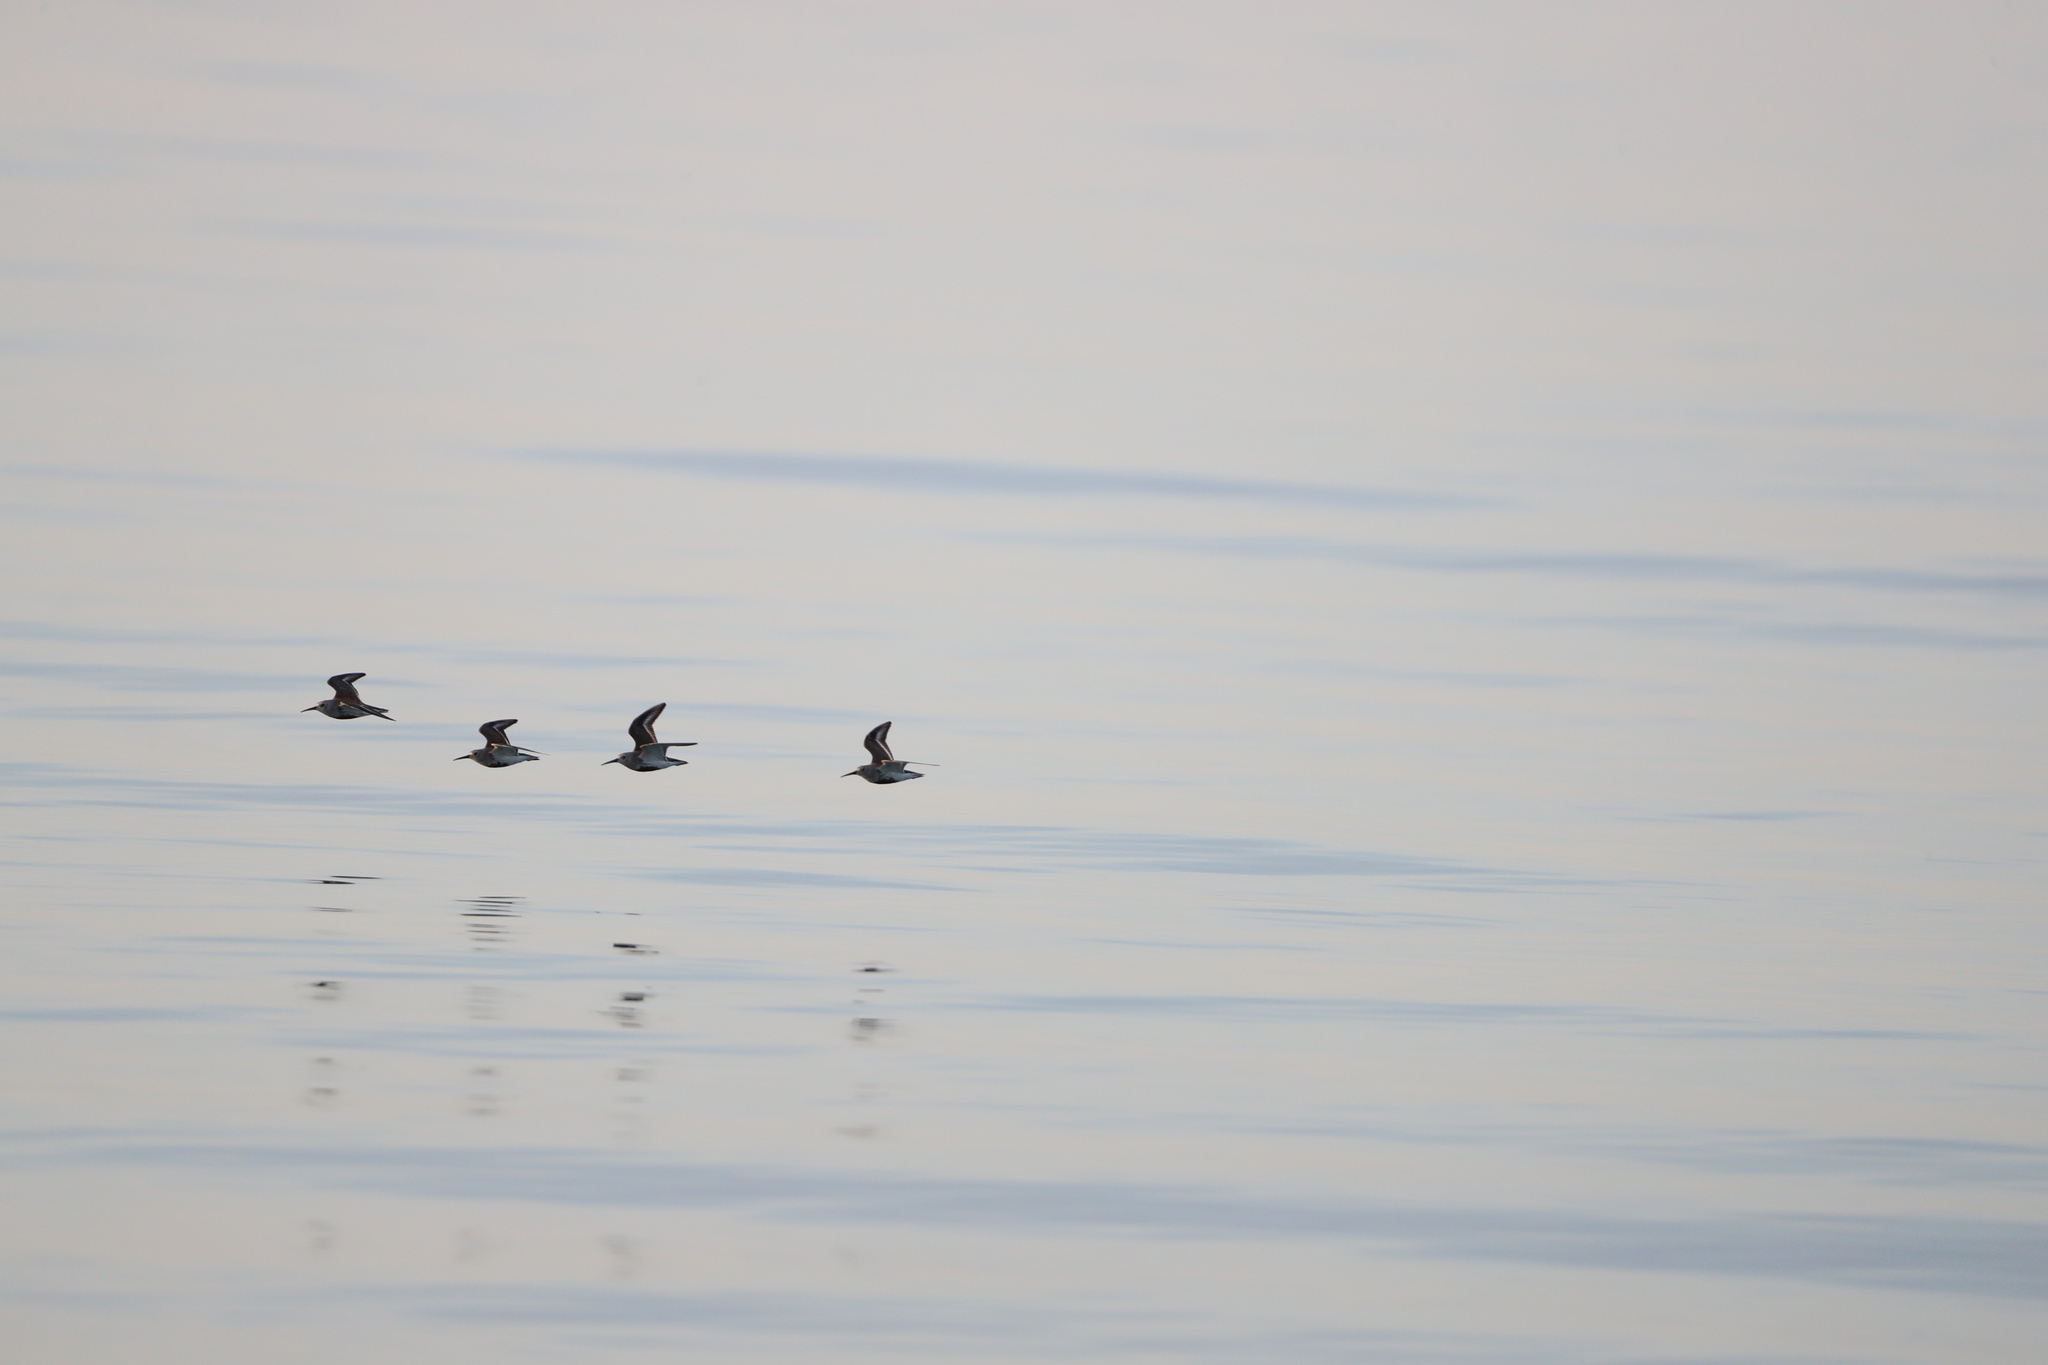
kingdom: Animalia
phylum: Chordata
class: Aves
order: Charadriiformes
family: Scolopacidae
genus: Calidris
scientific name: Calidris alpina
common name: Dunlin
